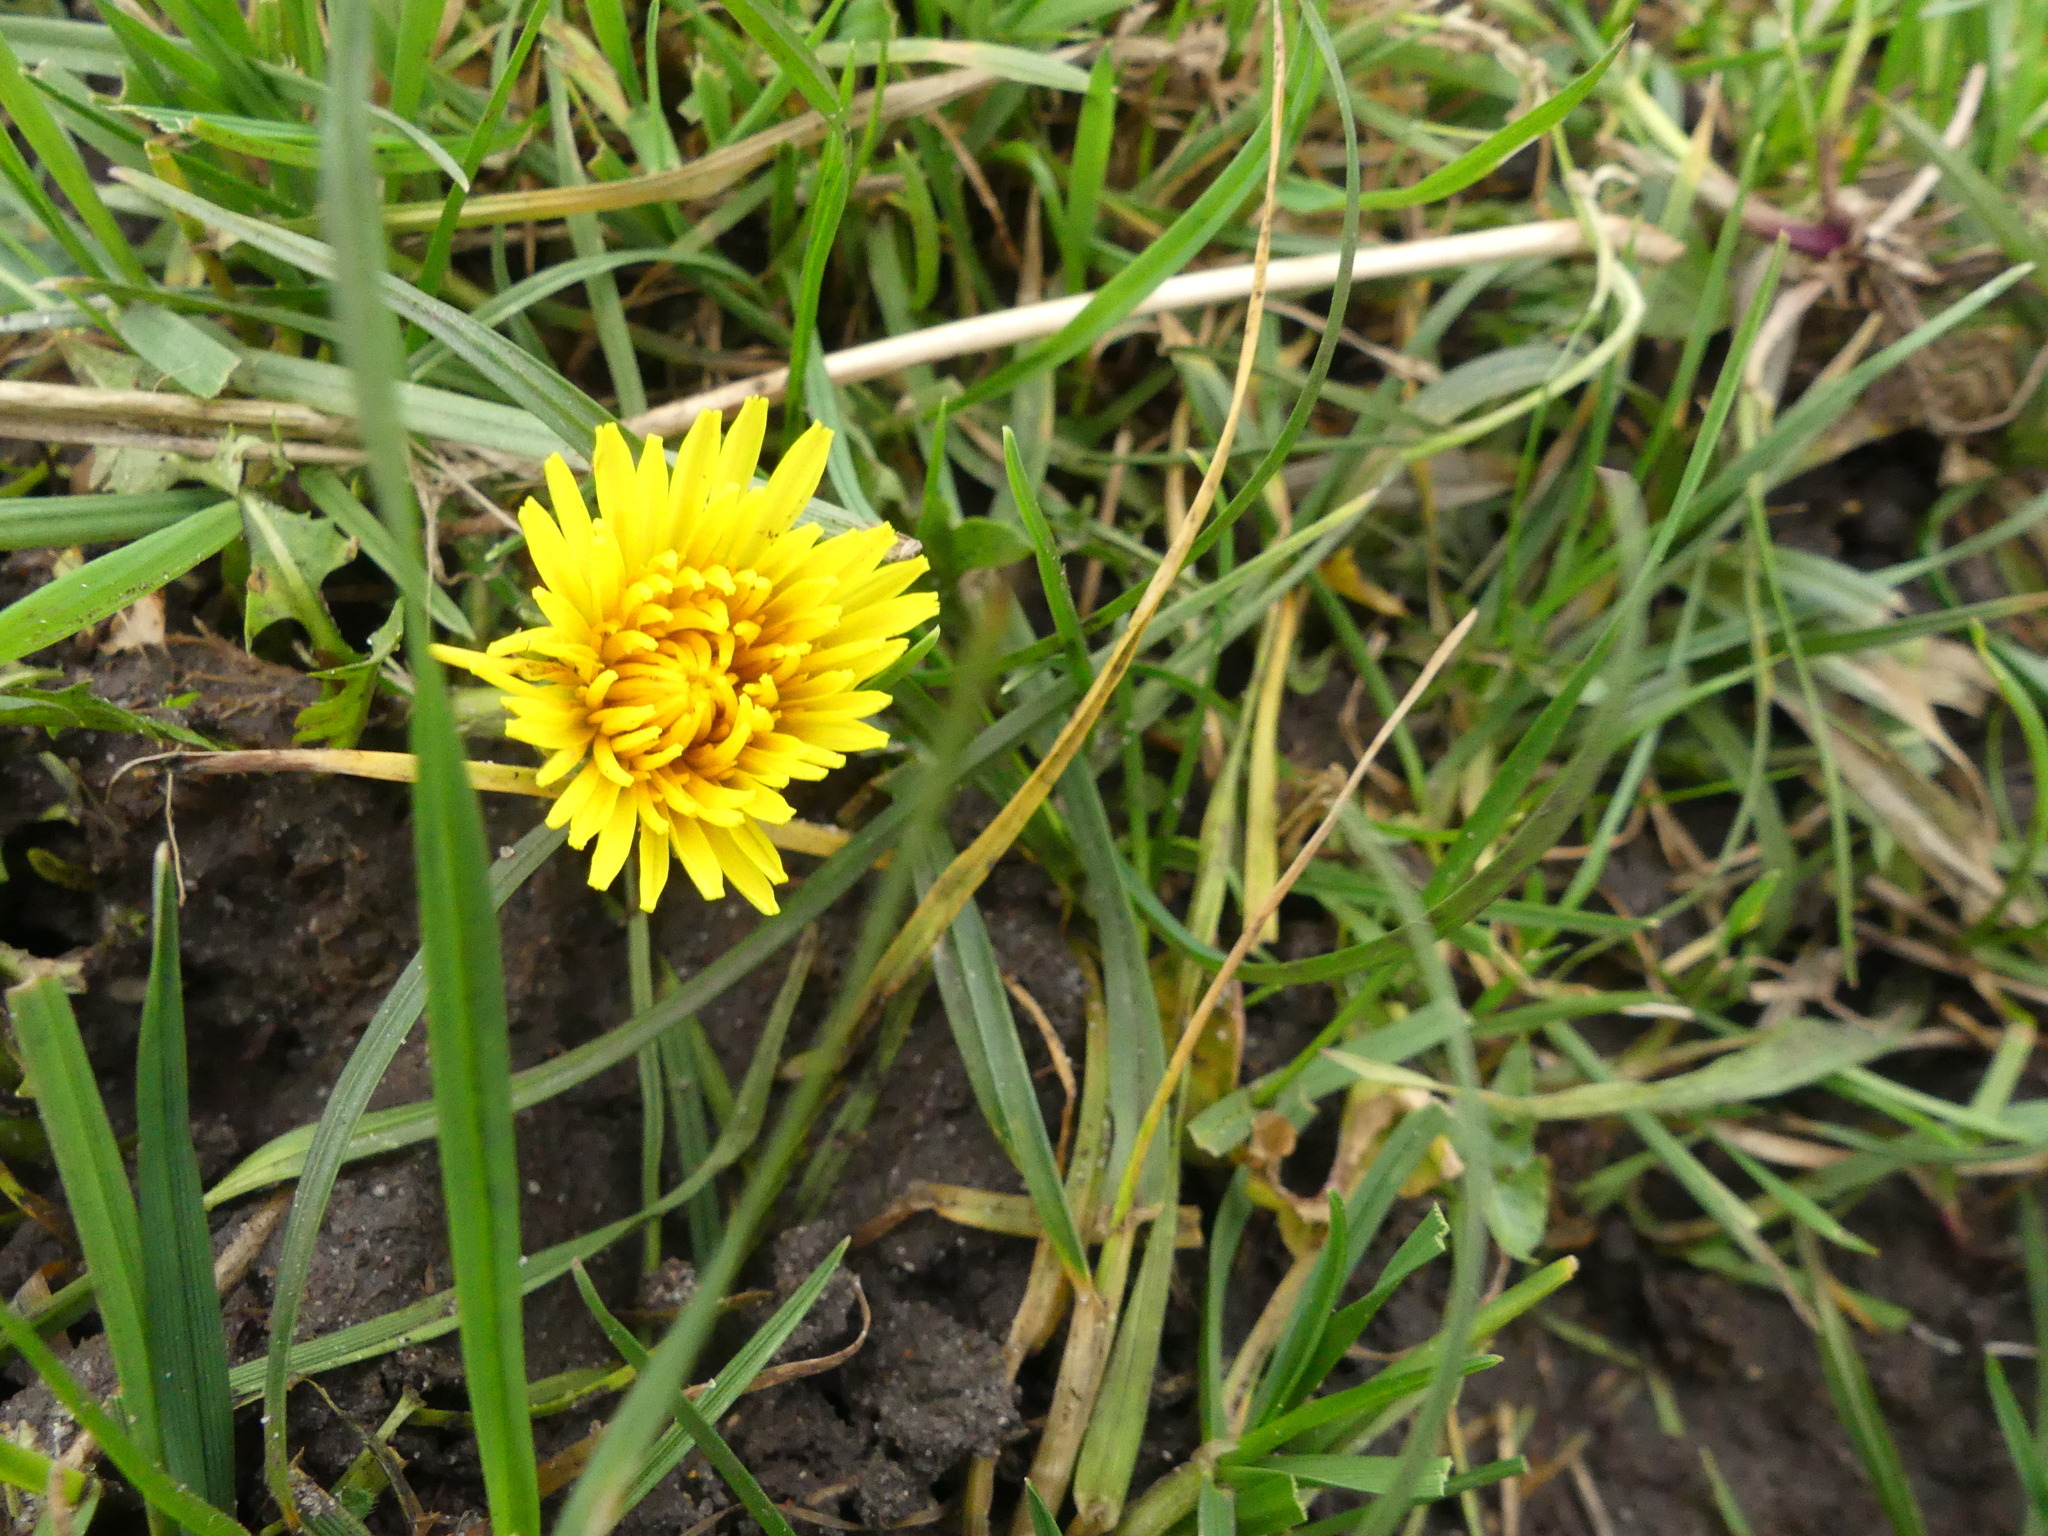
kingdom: Plantae
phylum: Tracheophyta
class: Magnoliopsida
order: Asterales
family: Asteraceae
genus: Taraxacum
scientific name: Taraxacum
